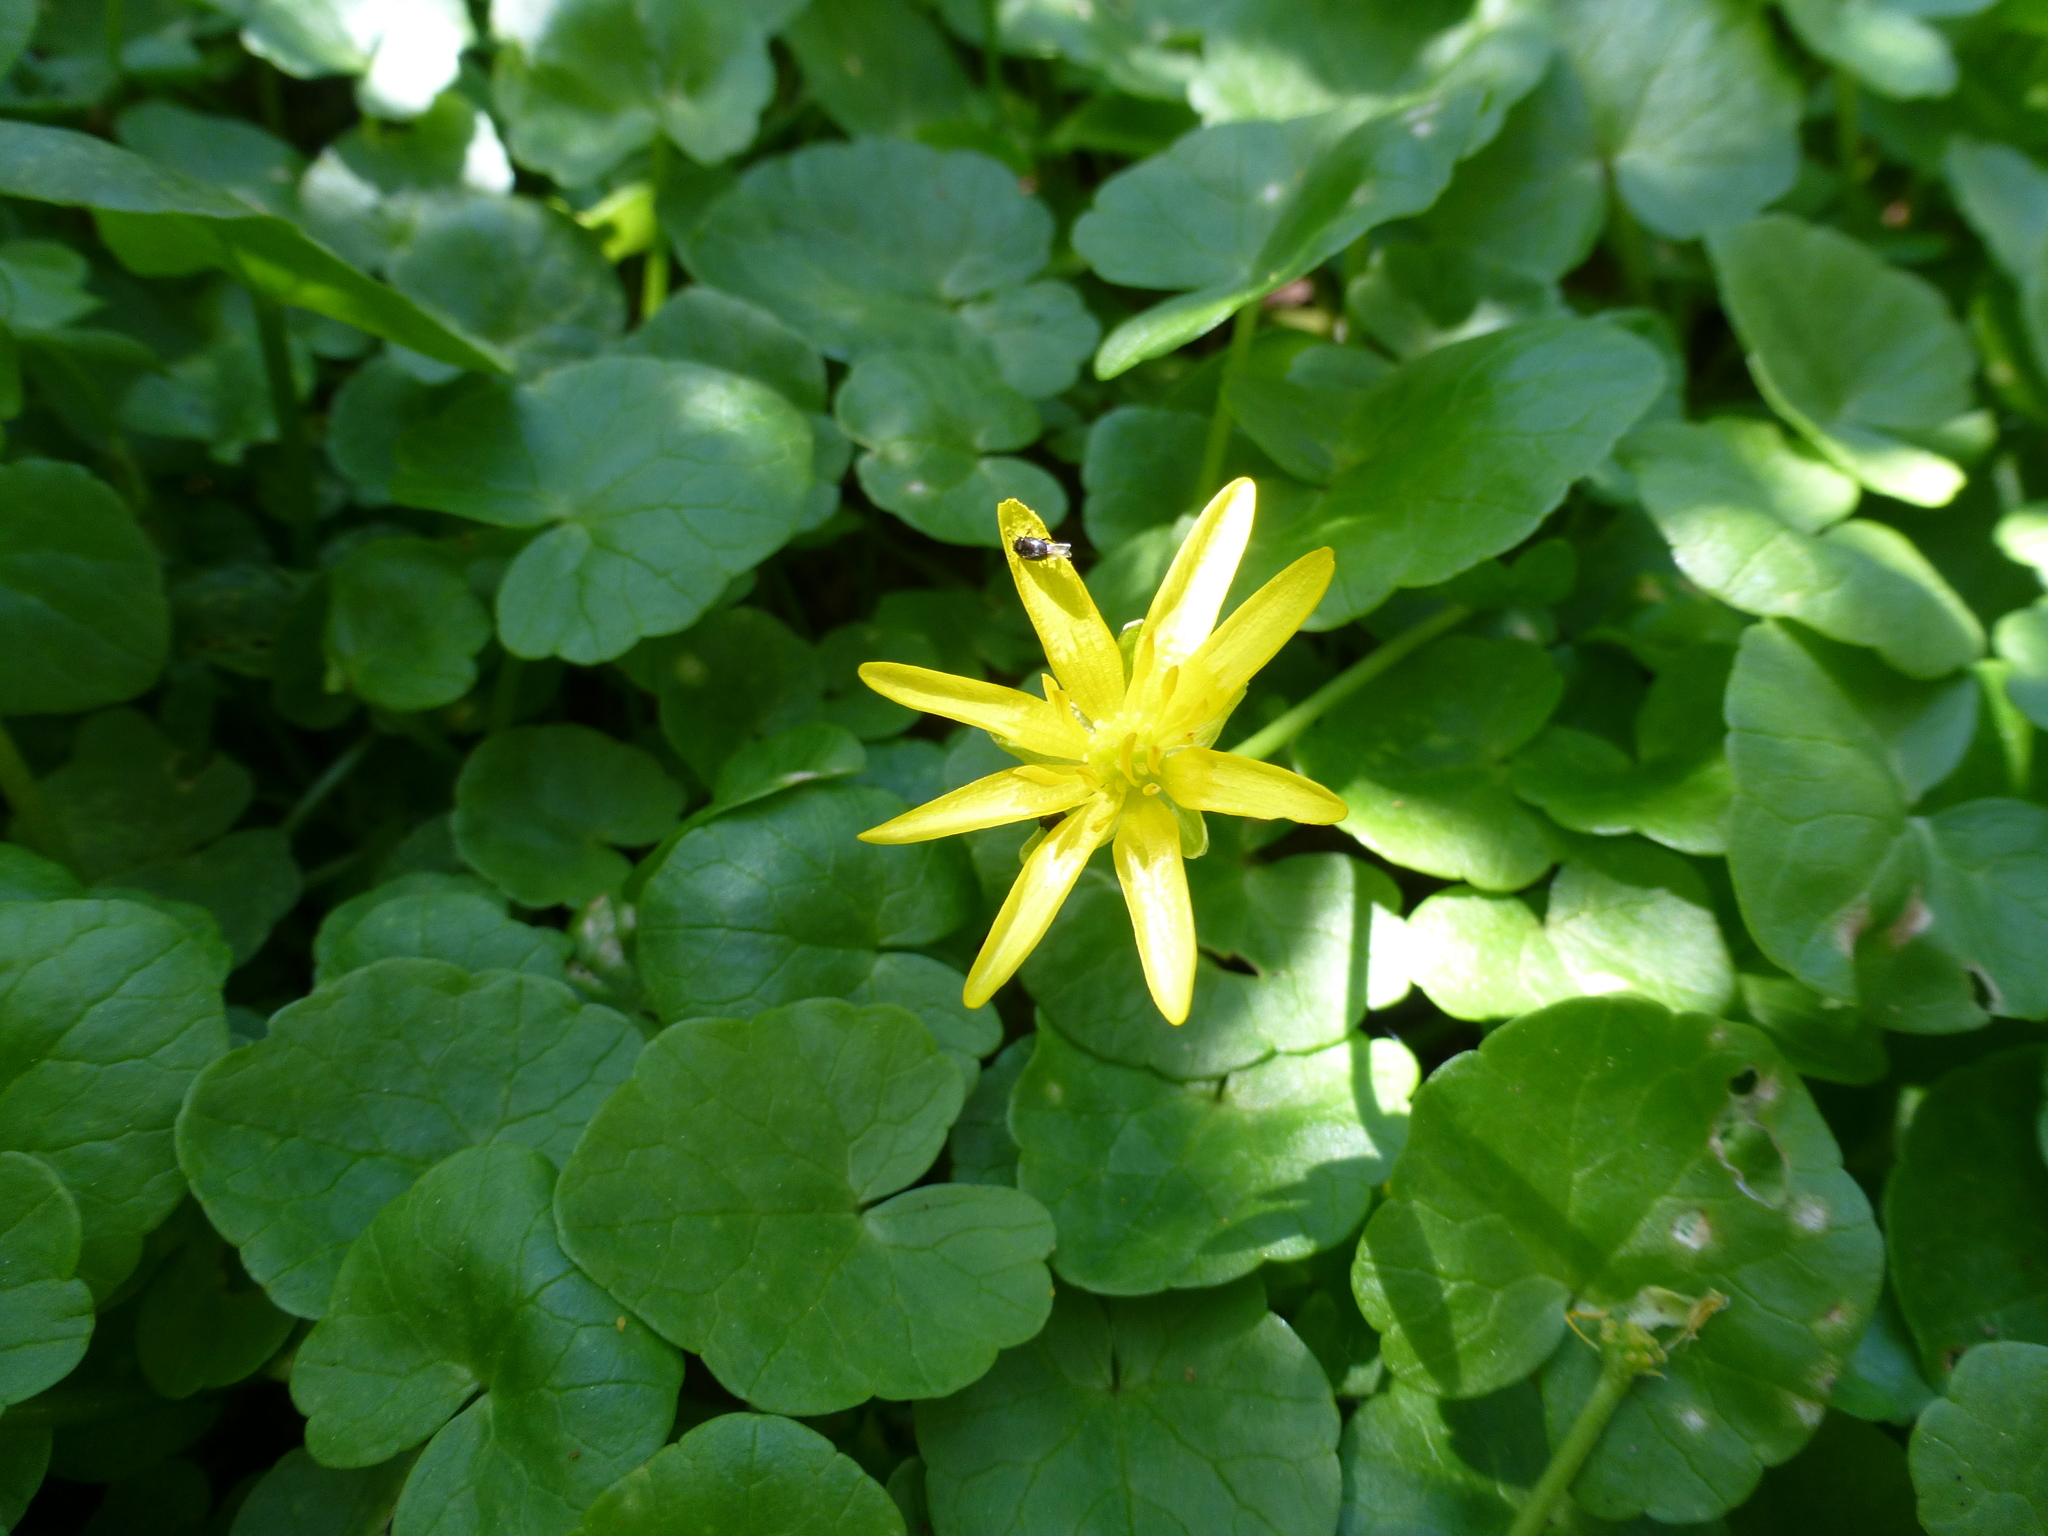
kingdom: Plantae
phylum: Tracheophyta
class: Magnoliopsida
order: Ranunculales
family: Ranunculaceae
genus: Ficaria
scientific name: Ficaria verna
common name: Lesser celandine
